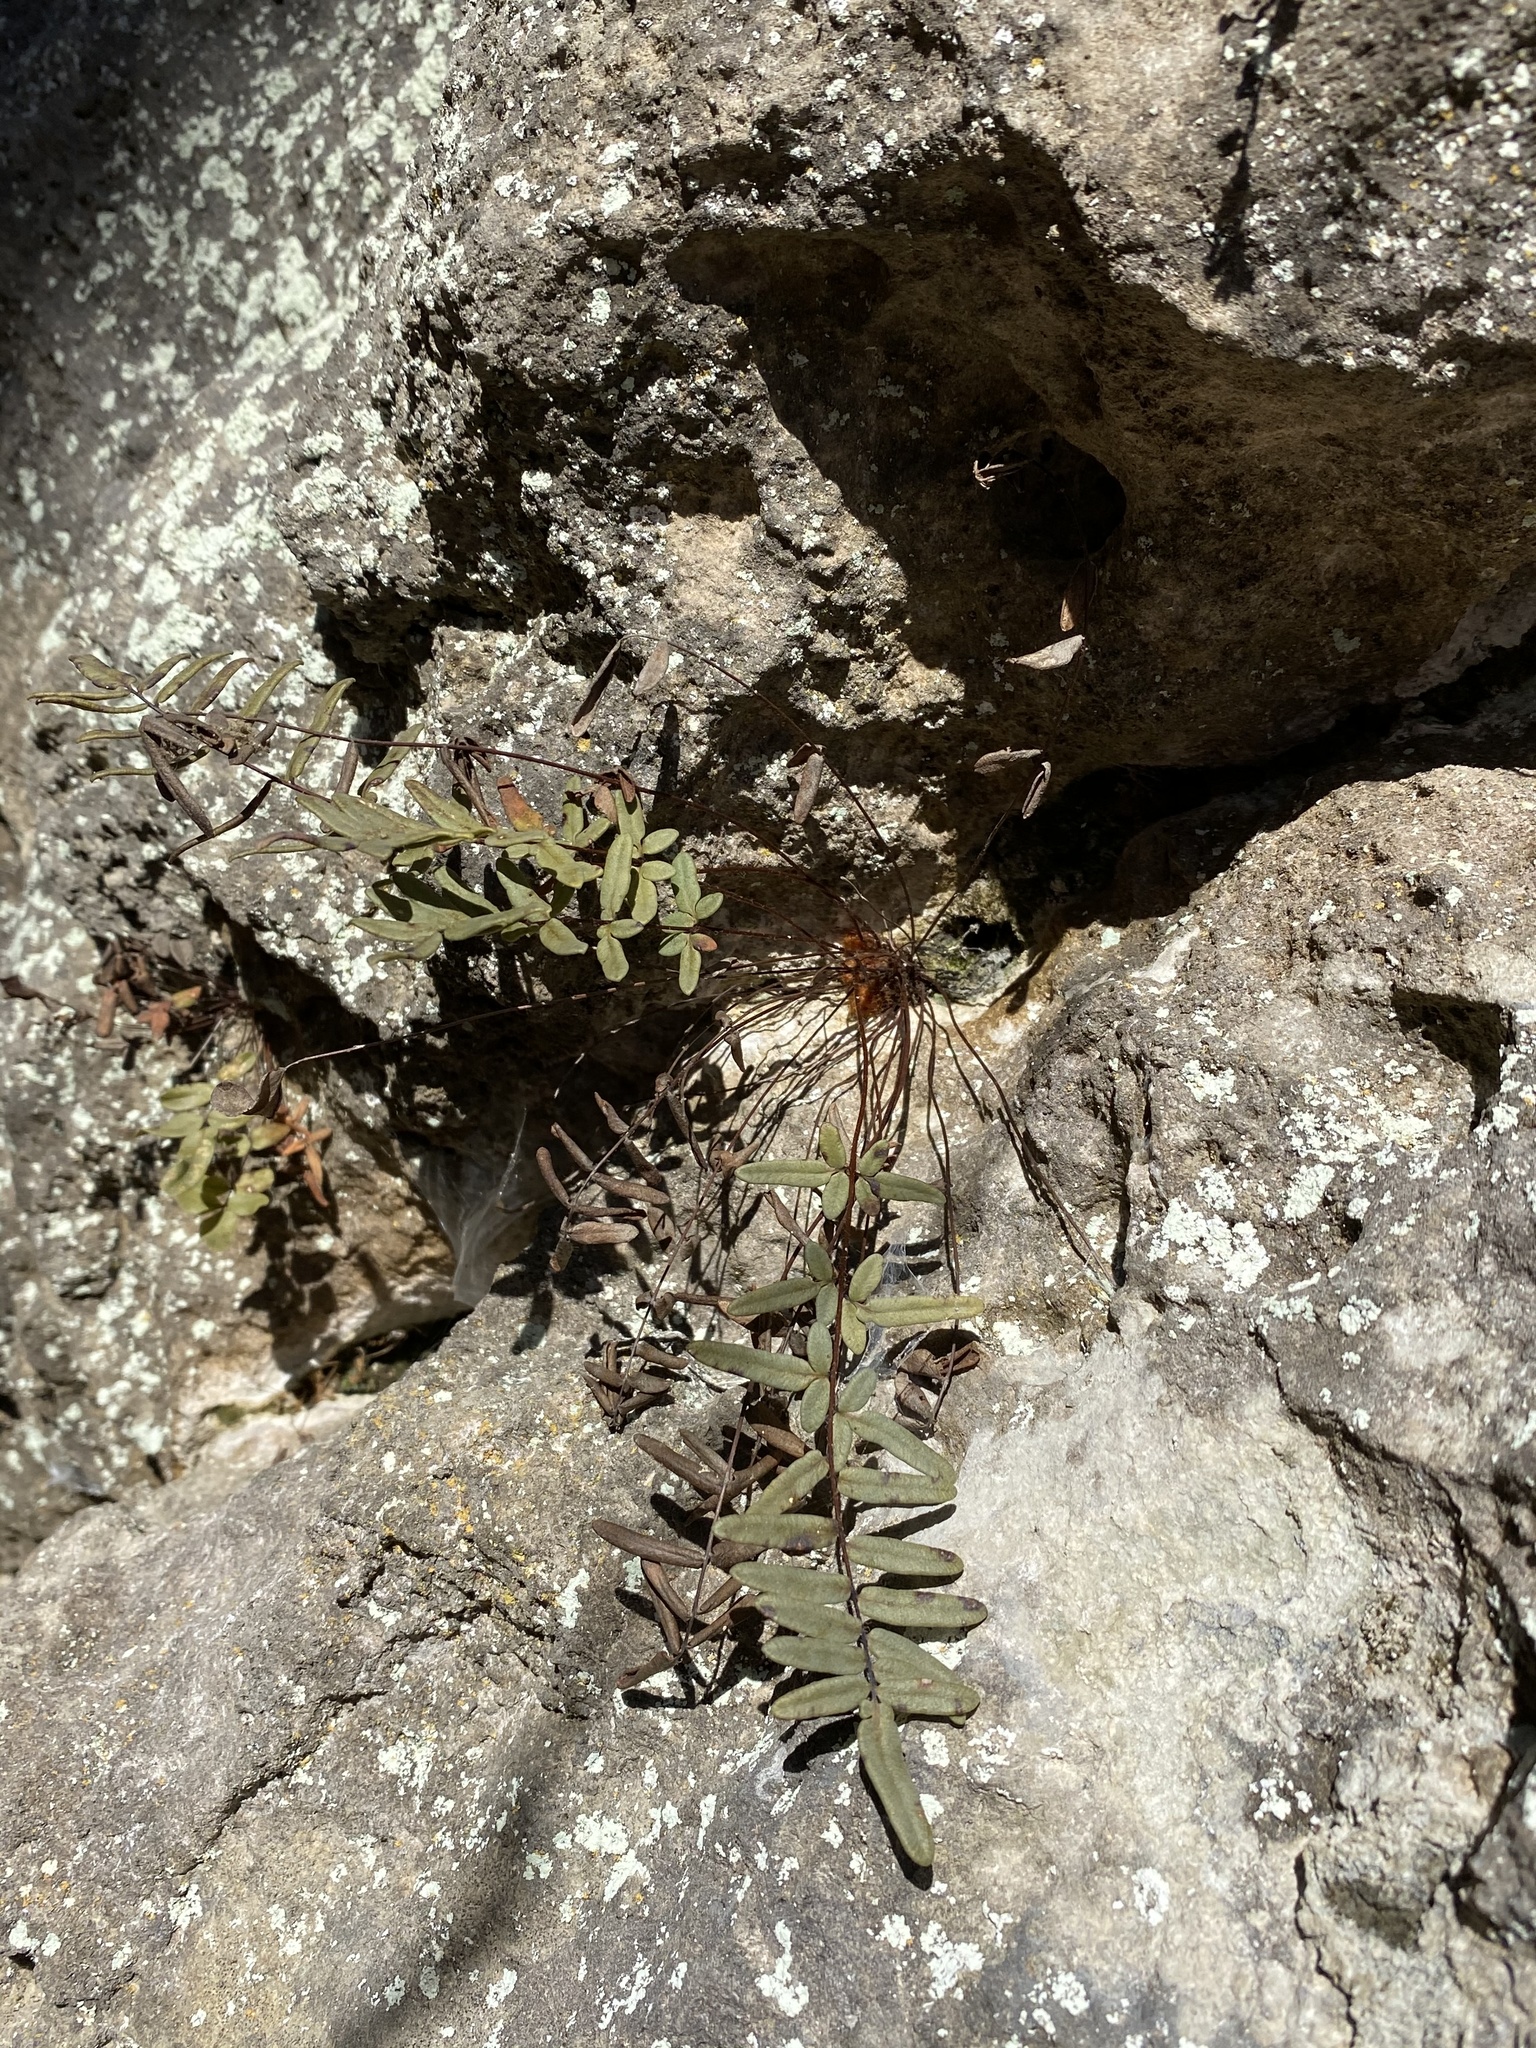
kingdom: Plantae
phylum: Tracheophyta
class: Polypodiopsida
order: Polypodiales
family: Pteridaceae
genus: Pellaea
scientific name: Pellaea atropurpurea
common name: Hairy cliffbrake
